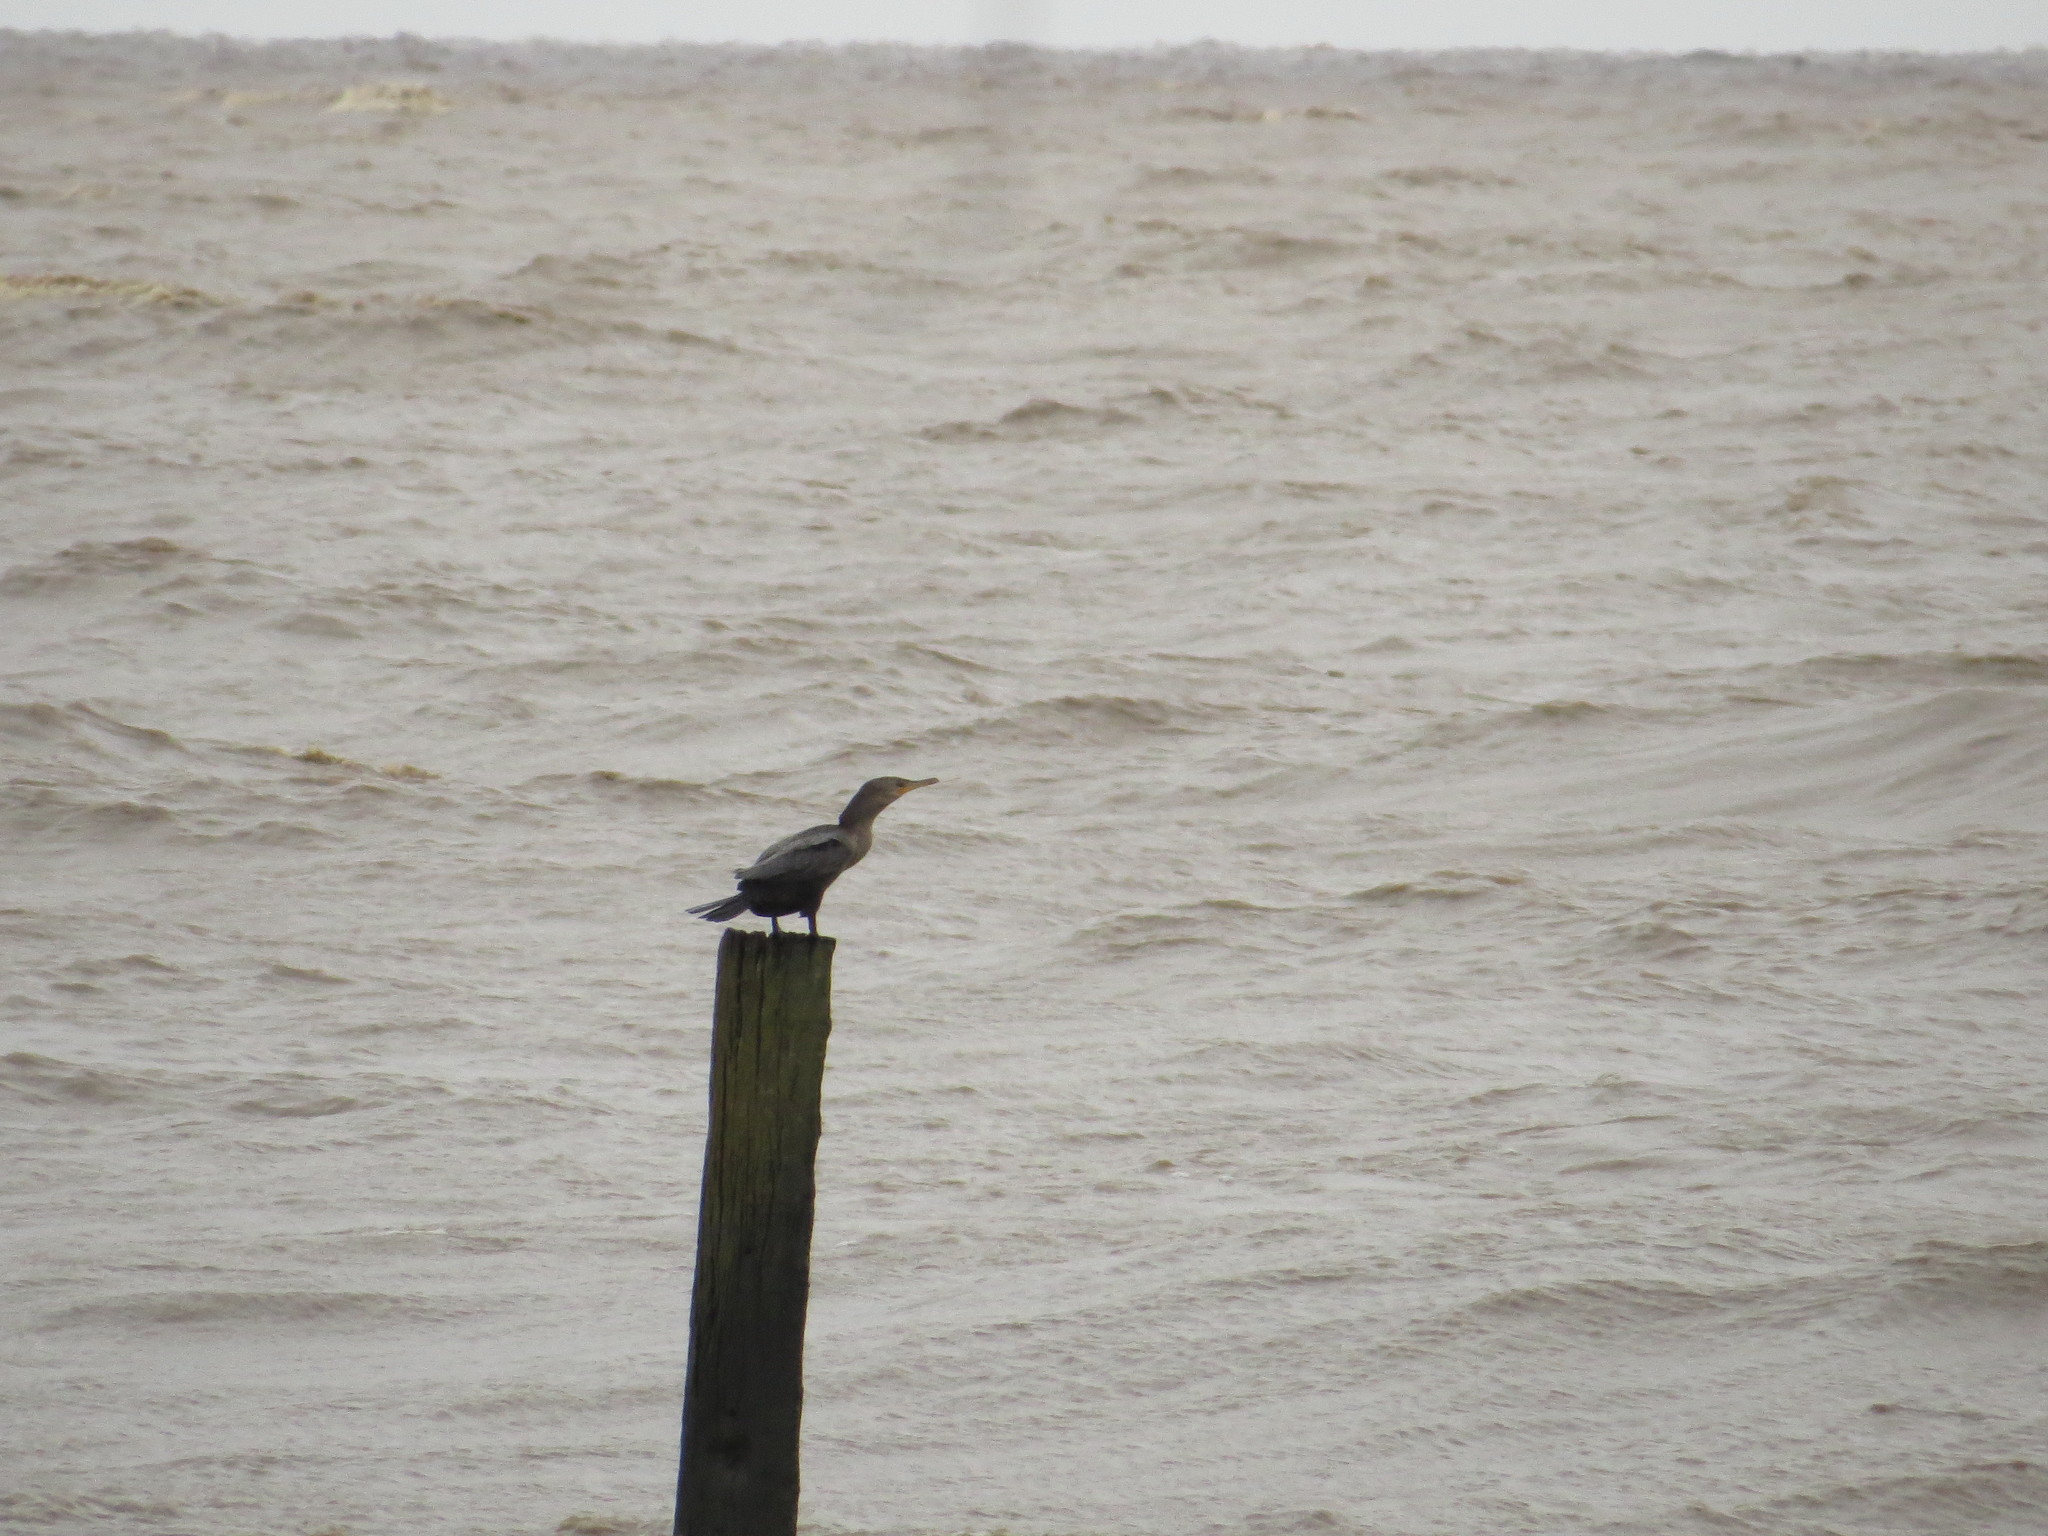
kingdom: Animalia
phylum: Chordata
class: Aves
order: Suliformes
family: Phalacrocoracidae
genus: Phalacrocorax
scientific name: Phalacrocorax brasilianus
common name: Neotropic cormorant
